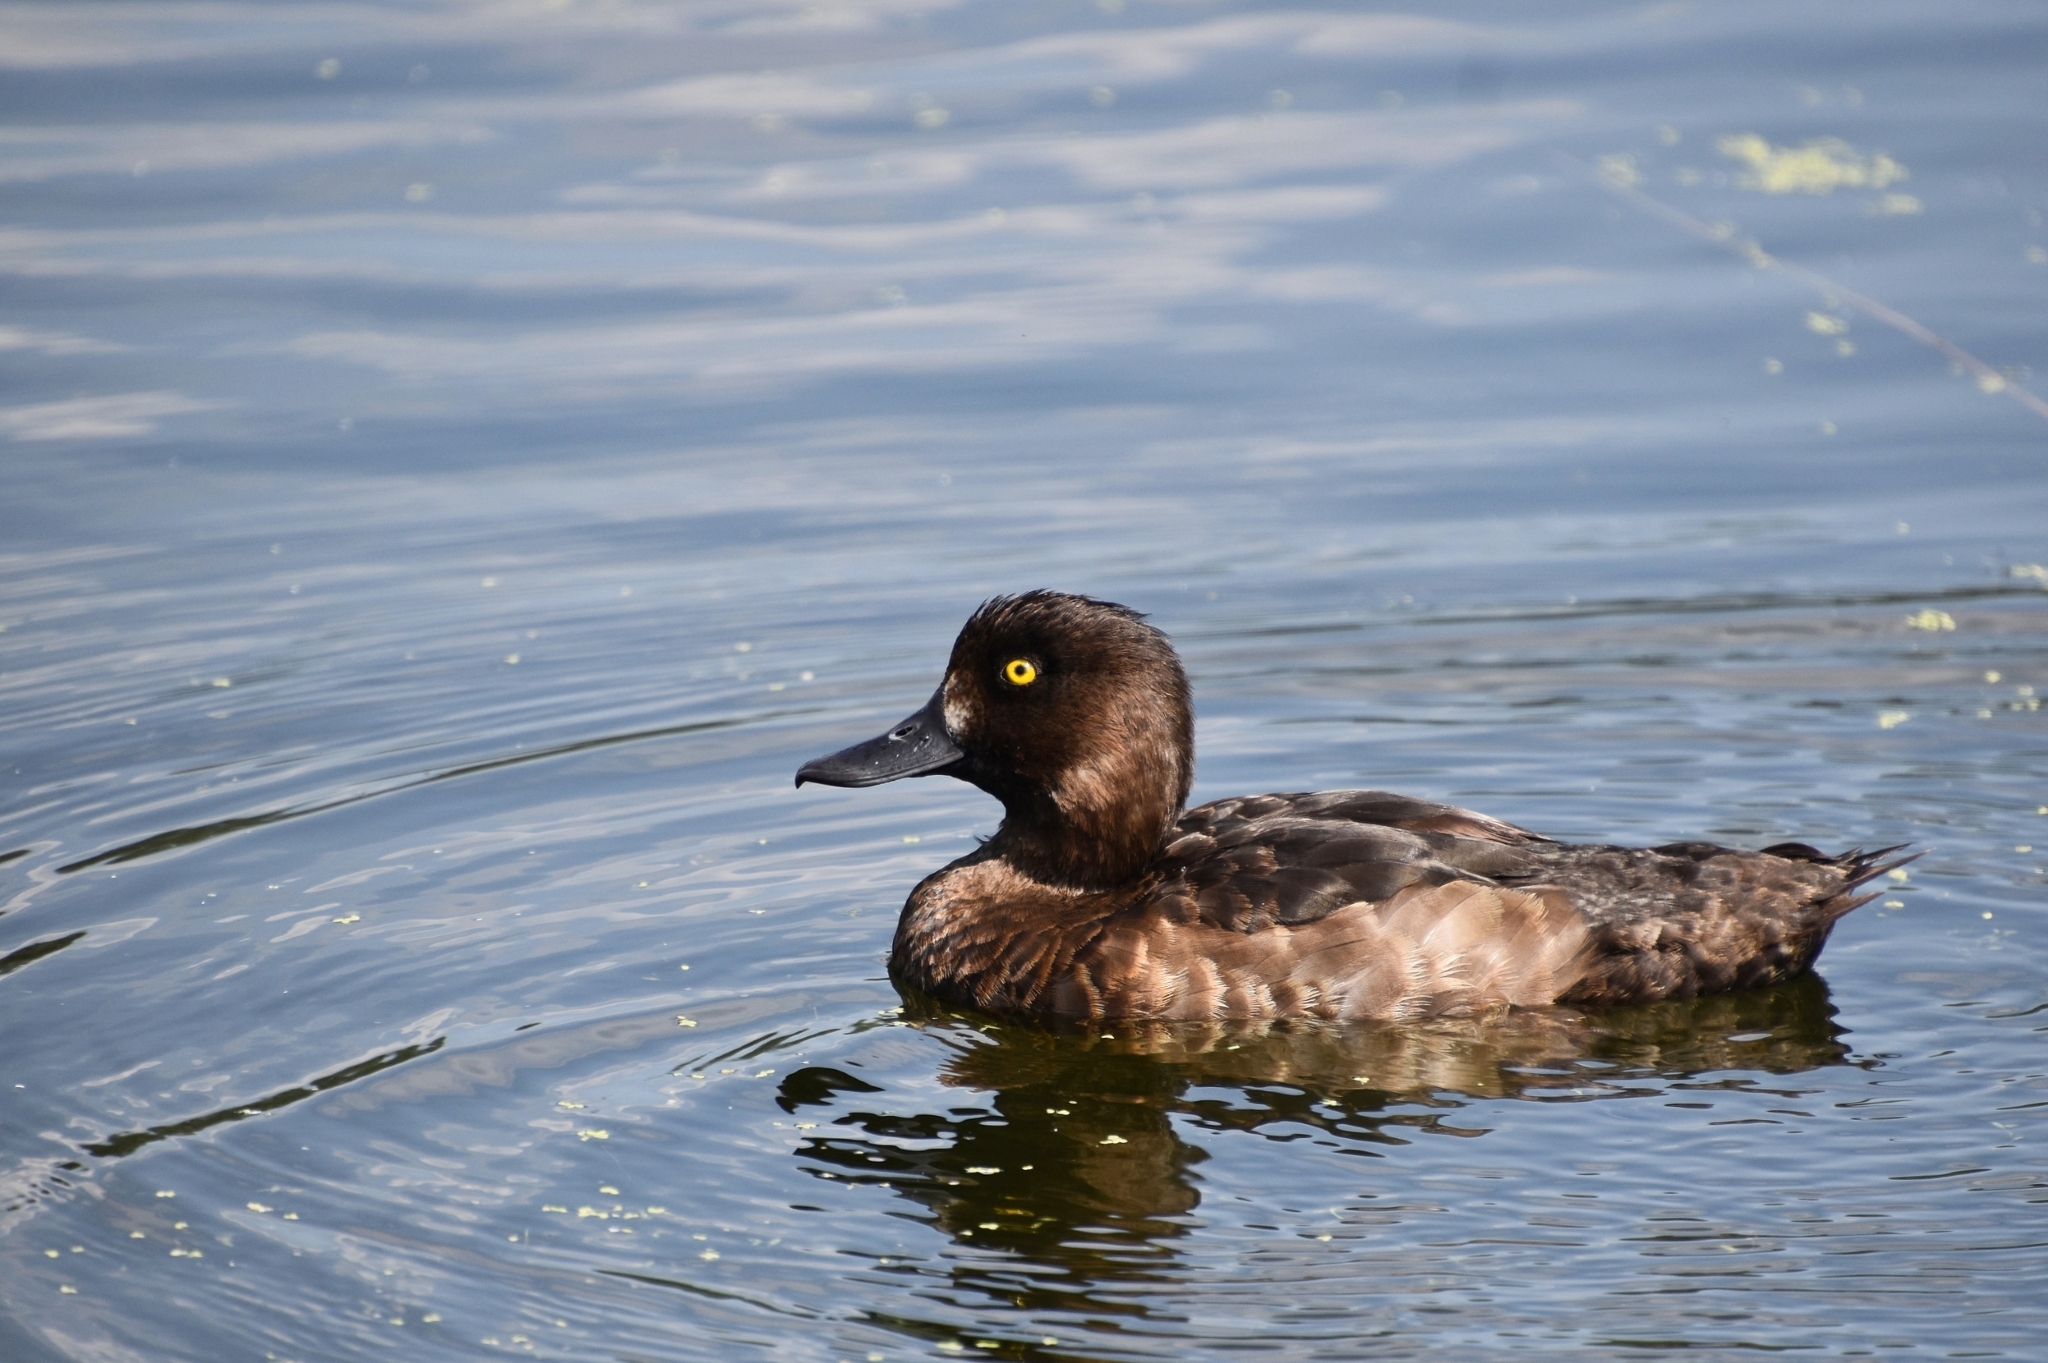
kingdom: Animalia
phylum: Chordata
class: Aves
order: Anseriformes
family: Anatidae
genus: Aythya
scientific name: Aythya fuligula
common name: Tufted duck
